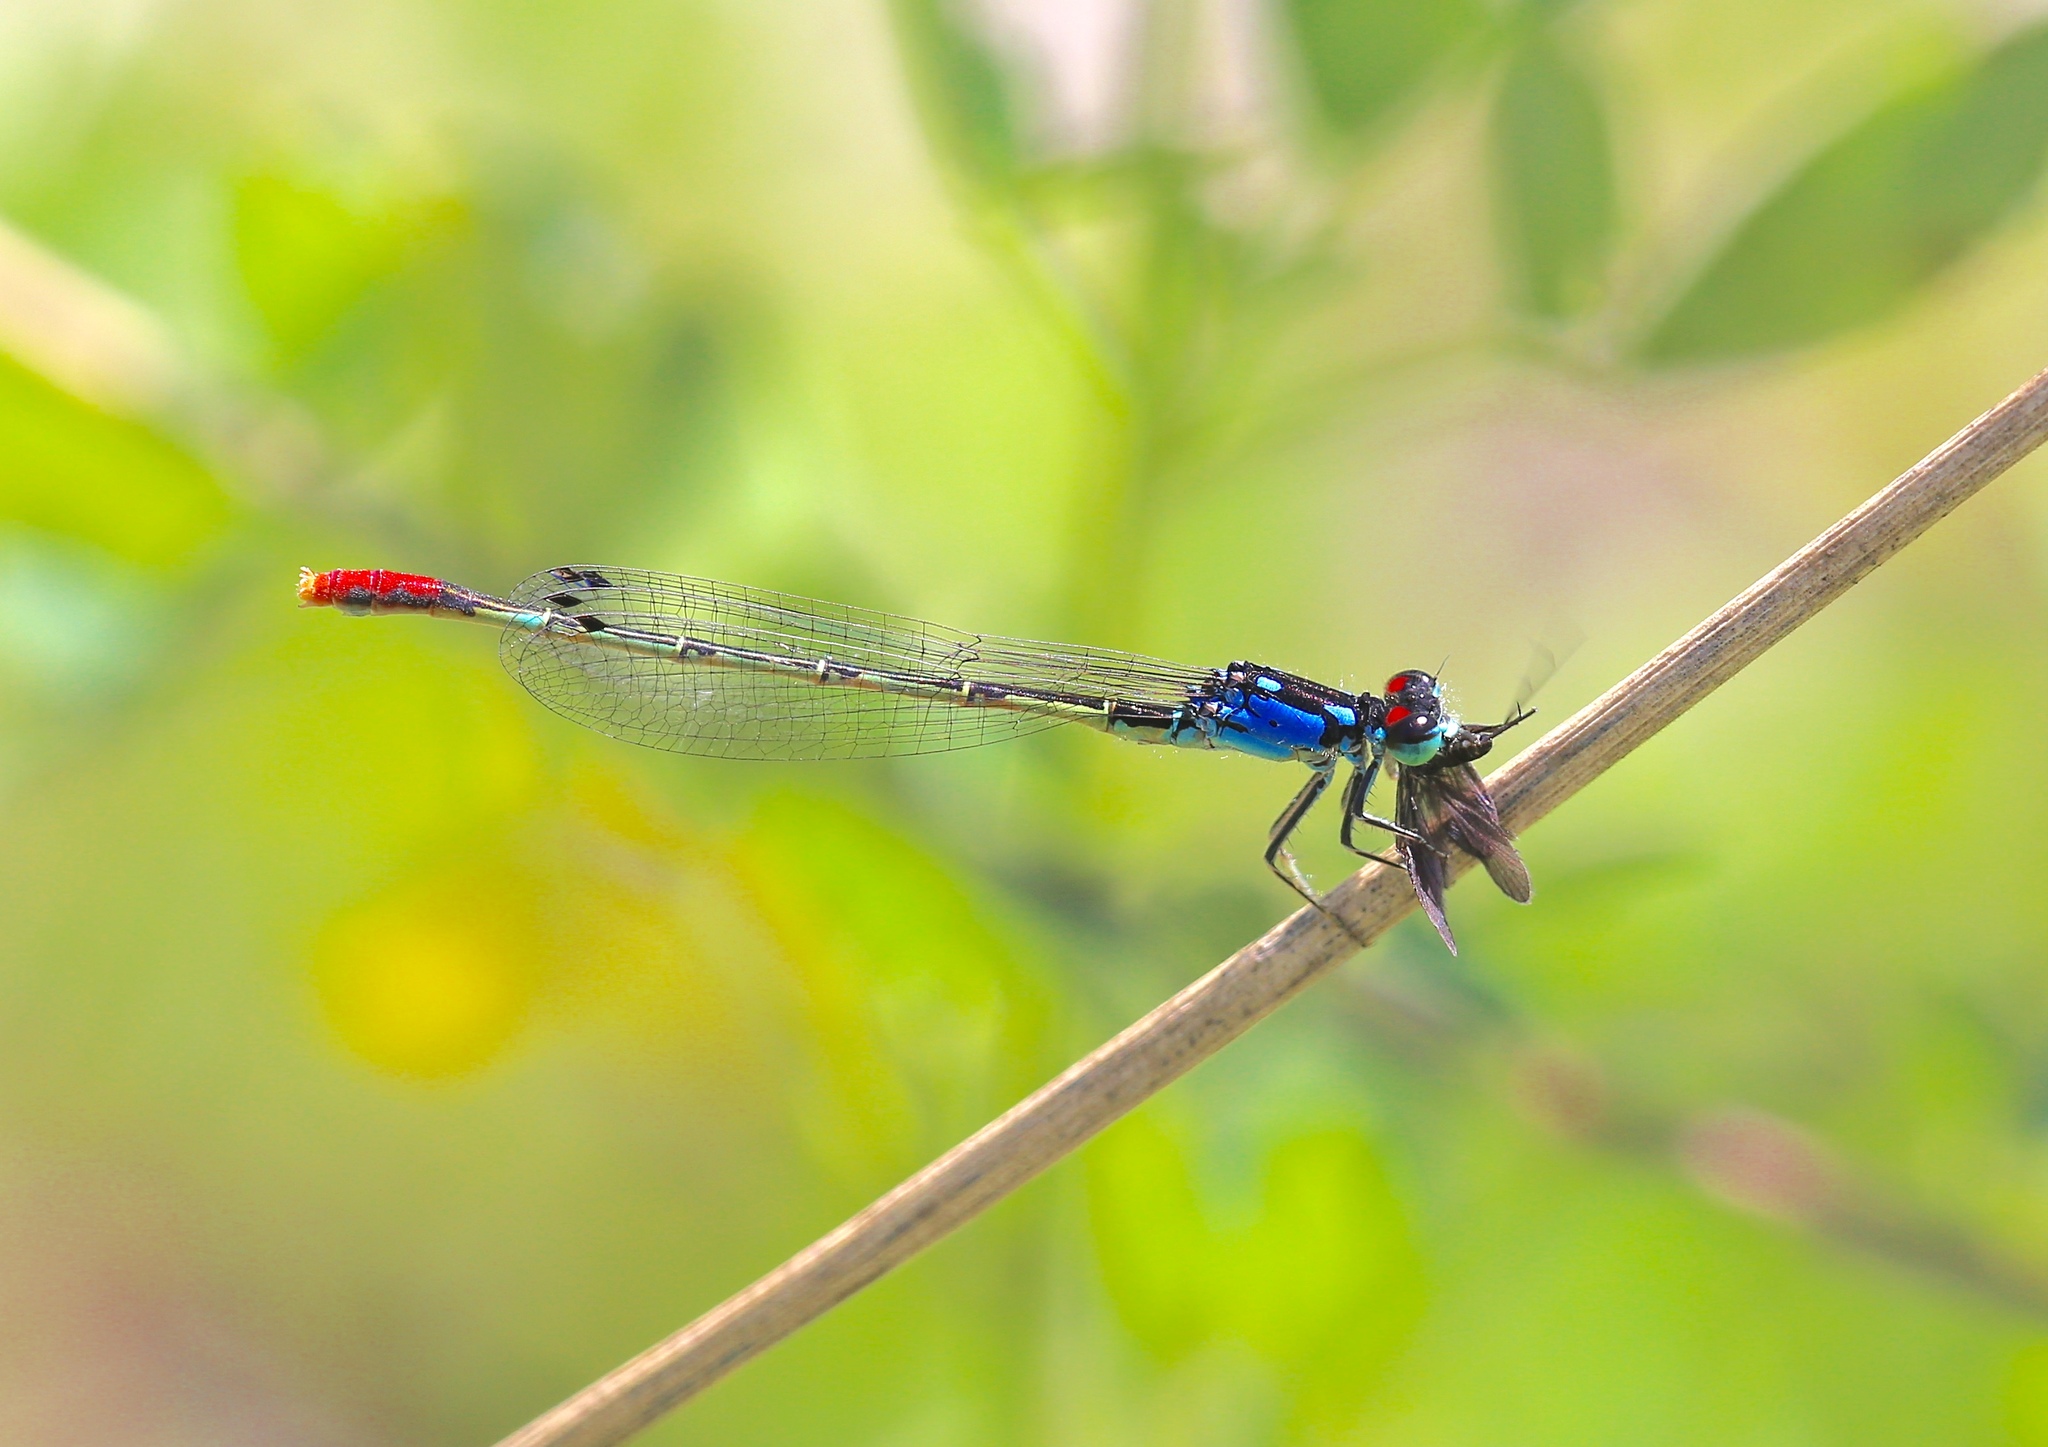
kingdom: Animalia
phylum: Arthropoda
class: Insecta
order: Odonata
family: Coenagrionidae
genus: Hesperagrion
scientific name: Hesperagrion heterodoxum
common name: Painted damsel
